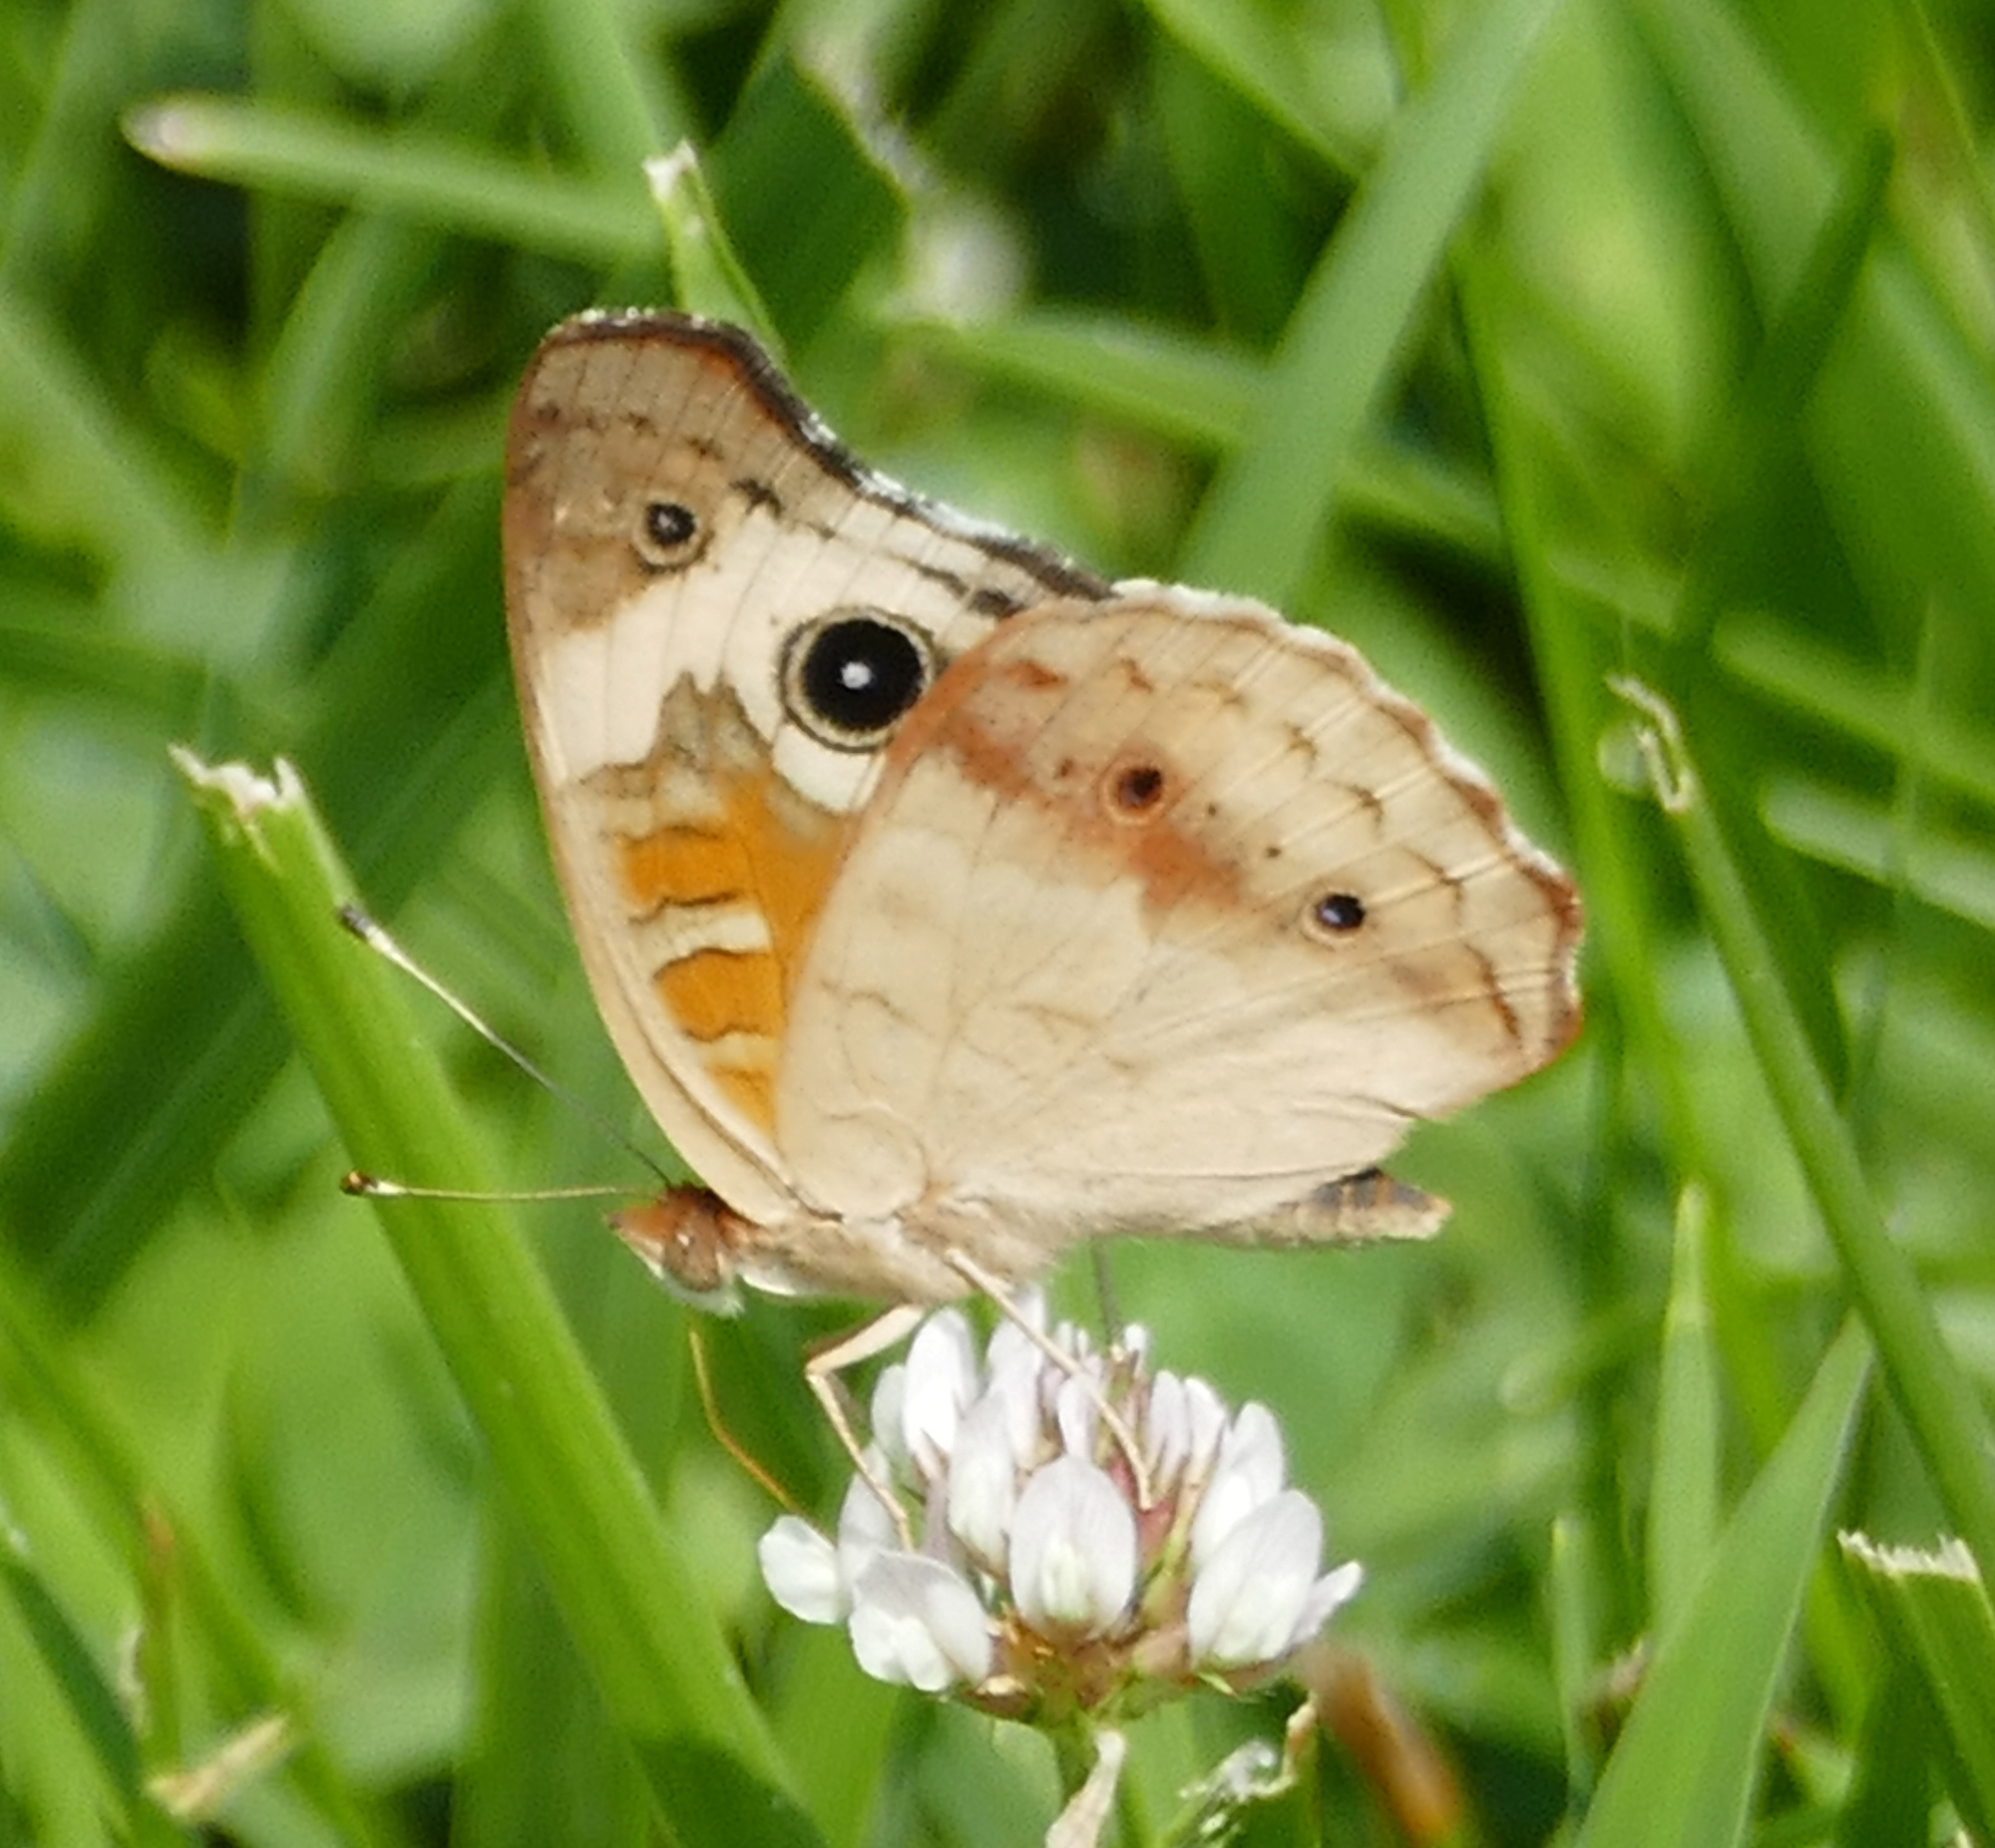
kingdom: Animalia
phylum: Arthropoda
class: Insecta
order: Lepidoptera
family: Nymphalidae
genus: Junonia
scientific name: Junonia coenia
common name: Common buckeye
